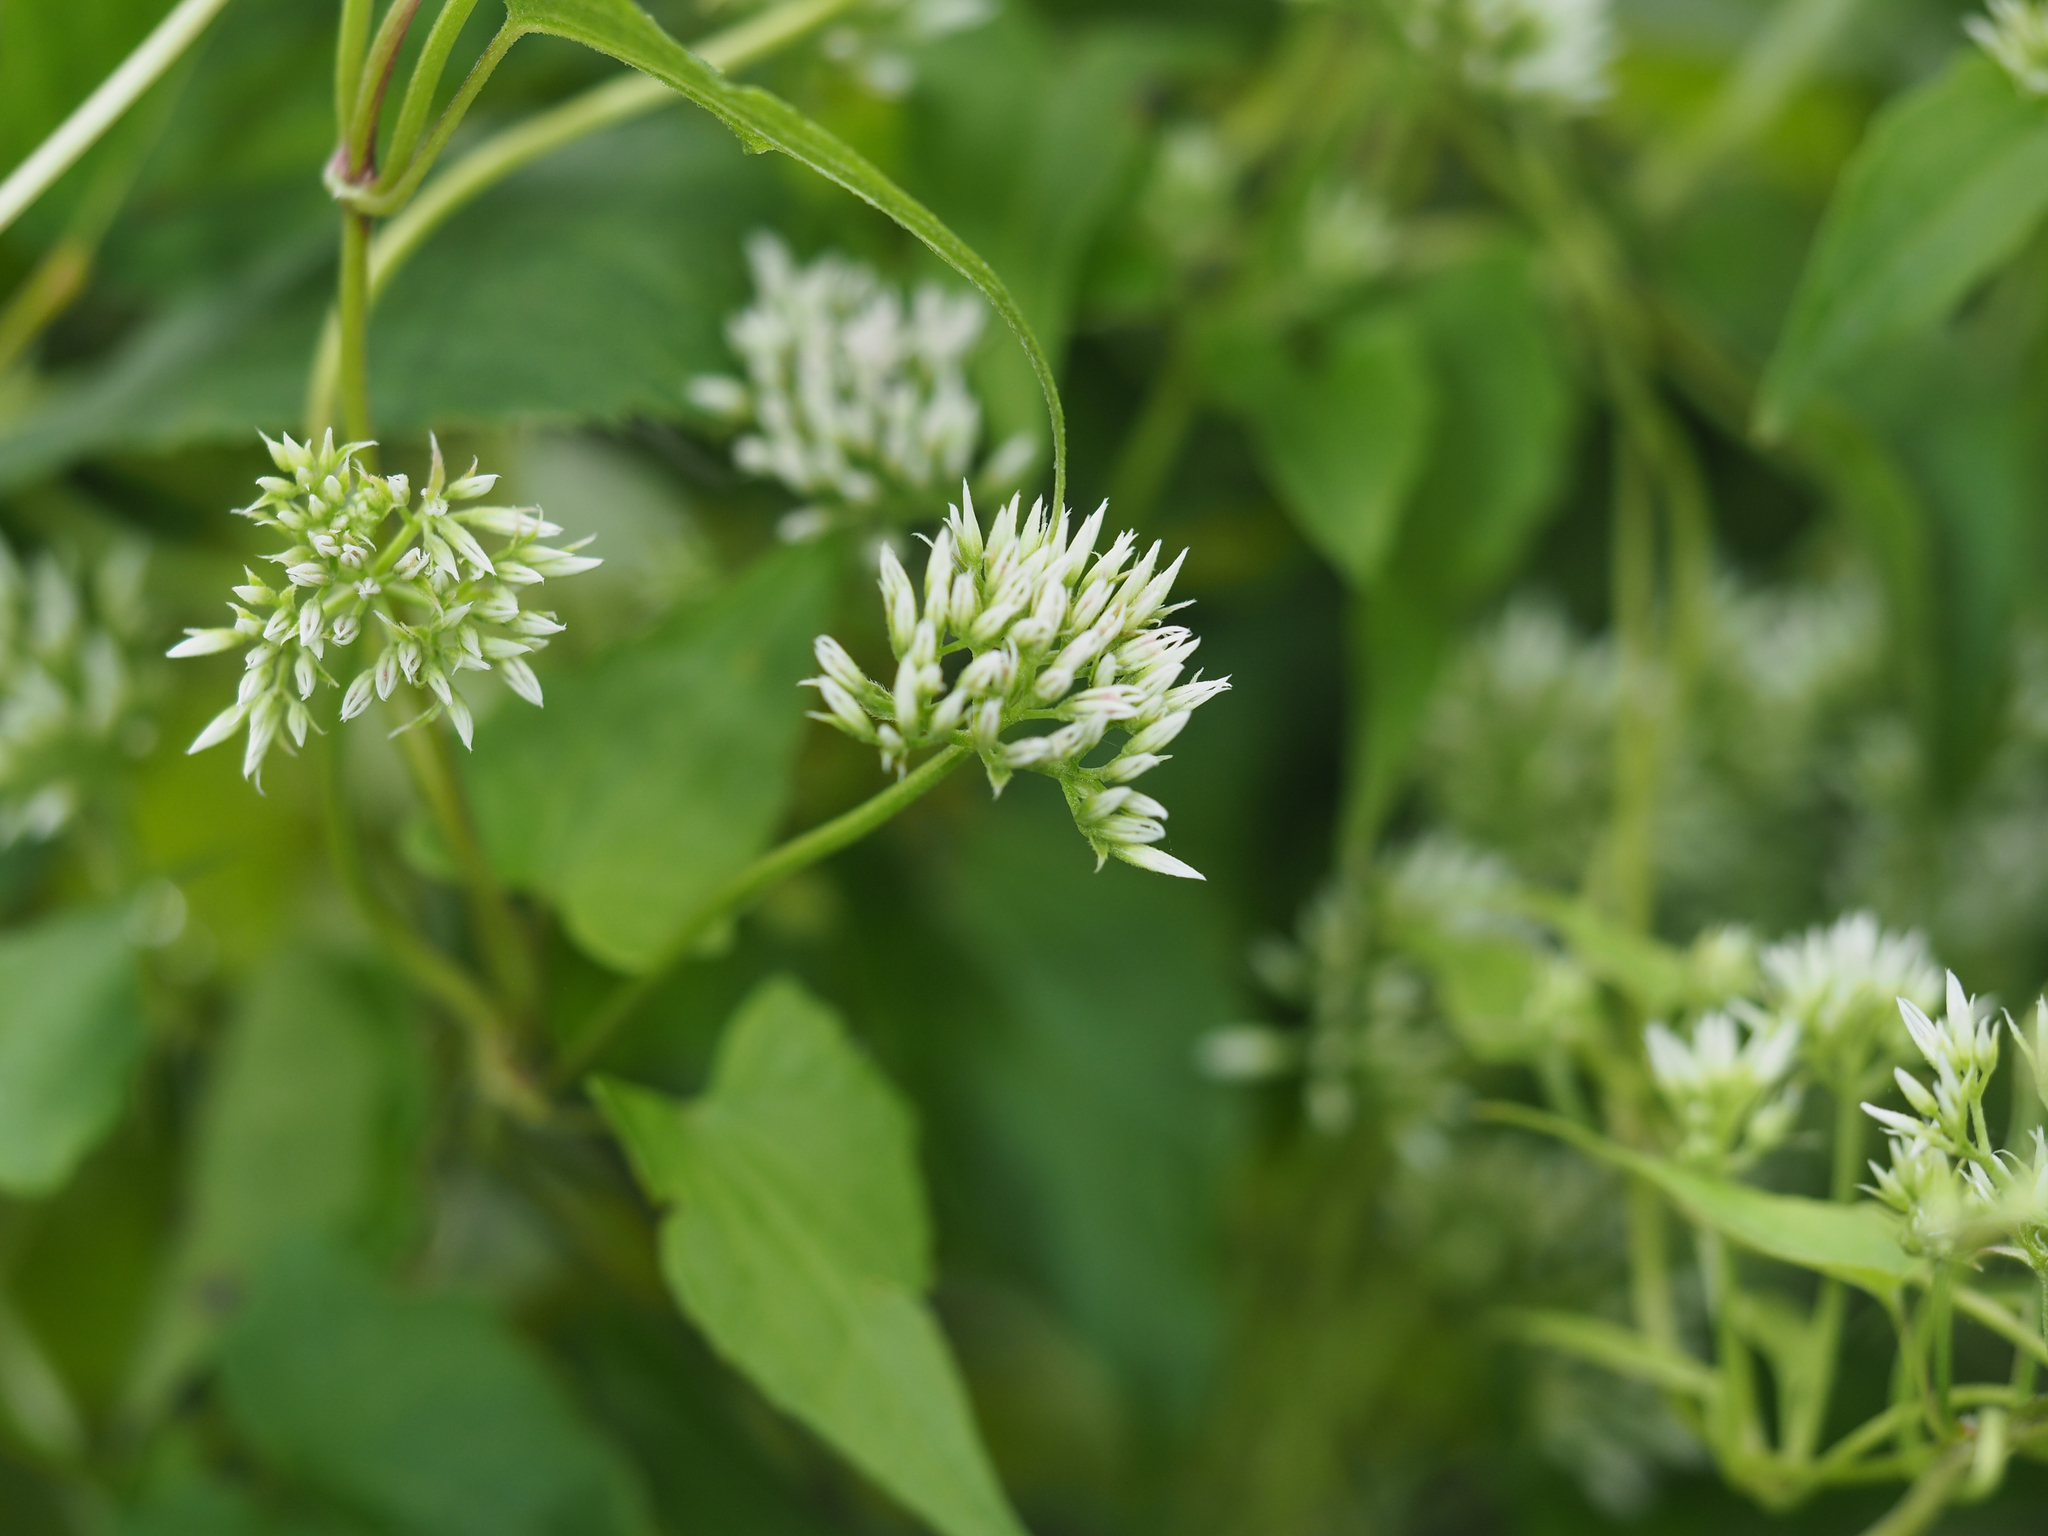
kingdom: Plantae
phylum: Tracheophyta
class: Magnoliopsida
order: Asterales
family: Asteraceae
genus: Mikania
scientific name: Mikania scandens
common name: Climbing hempvine
